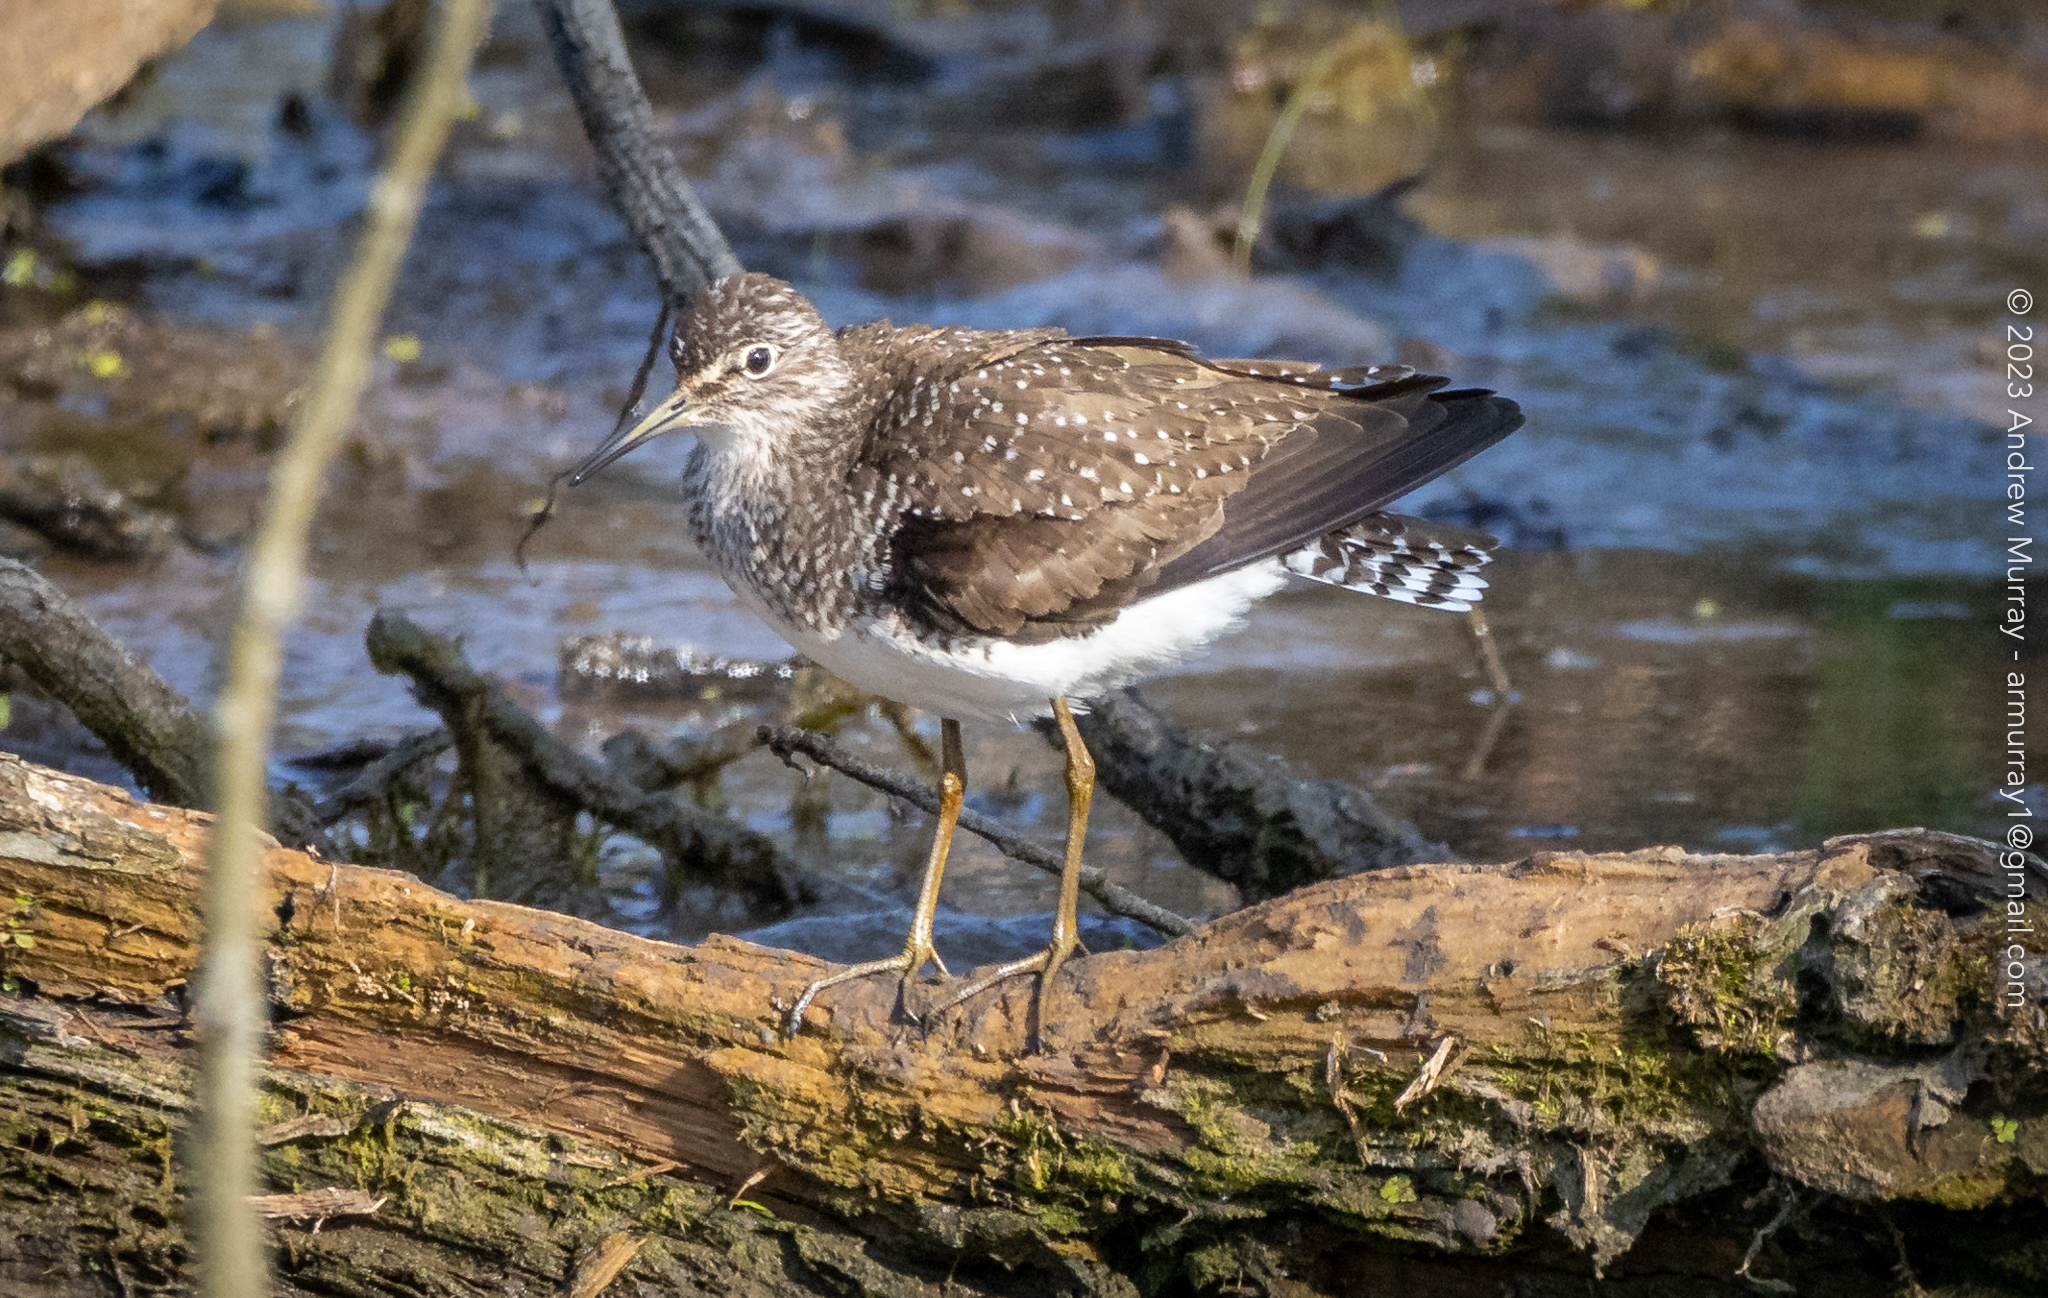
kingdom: Animalia
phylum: Chordata
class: Aves
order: Charadriiformes
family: Scolopacidae
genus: Tringa
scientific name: Tringa solitaria
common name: Solitary sandpiper
